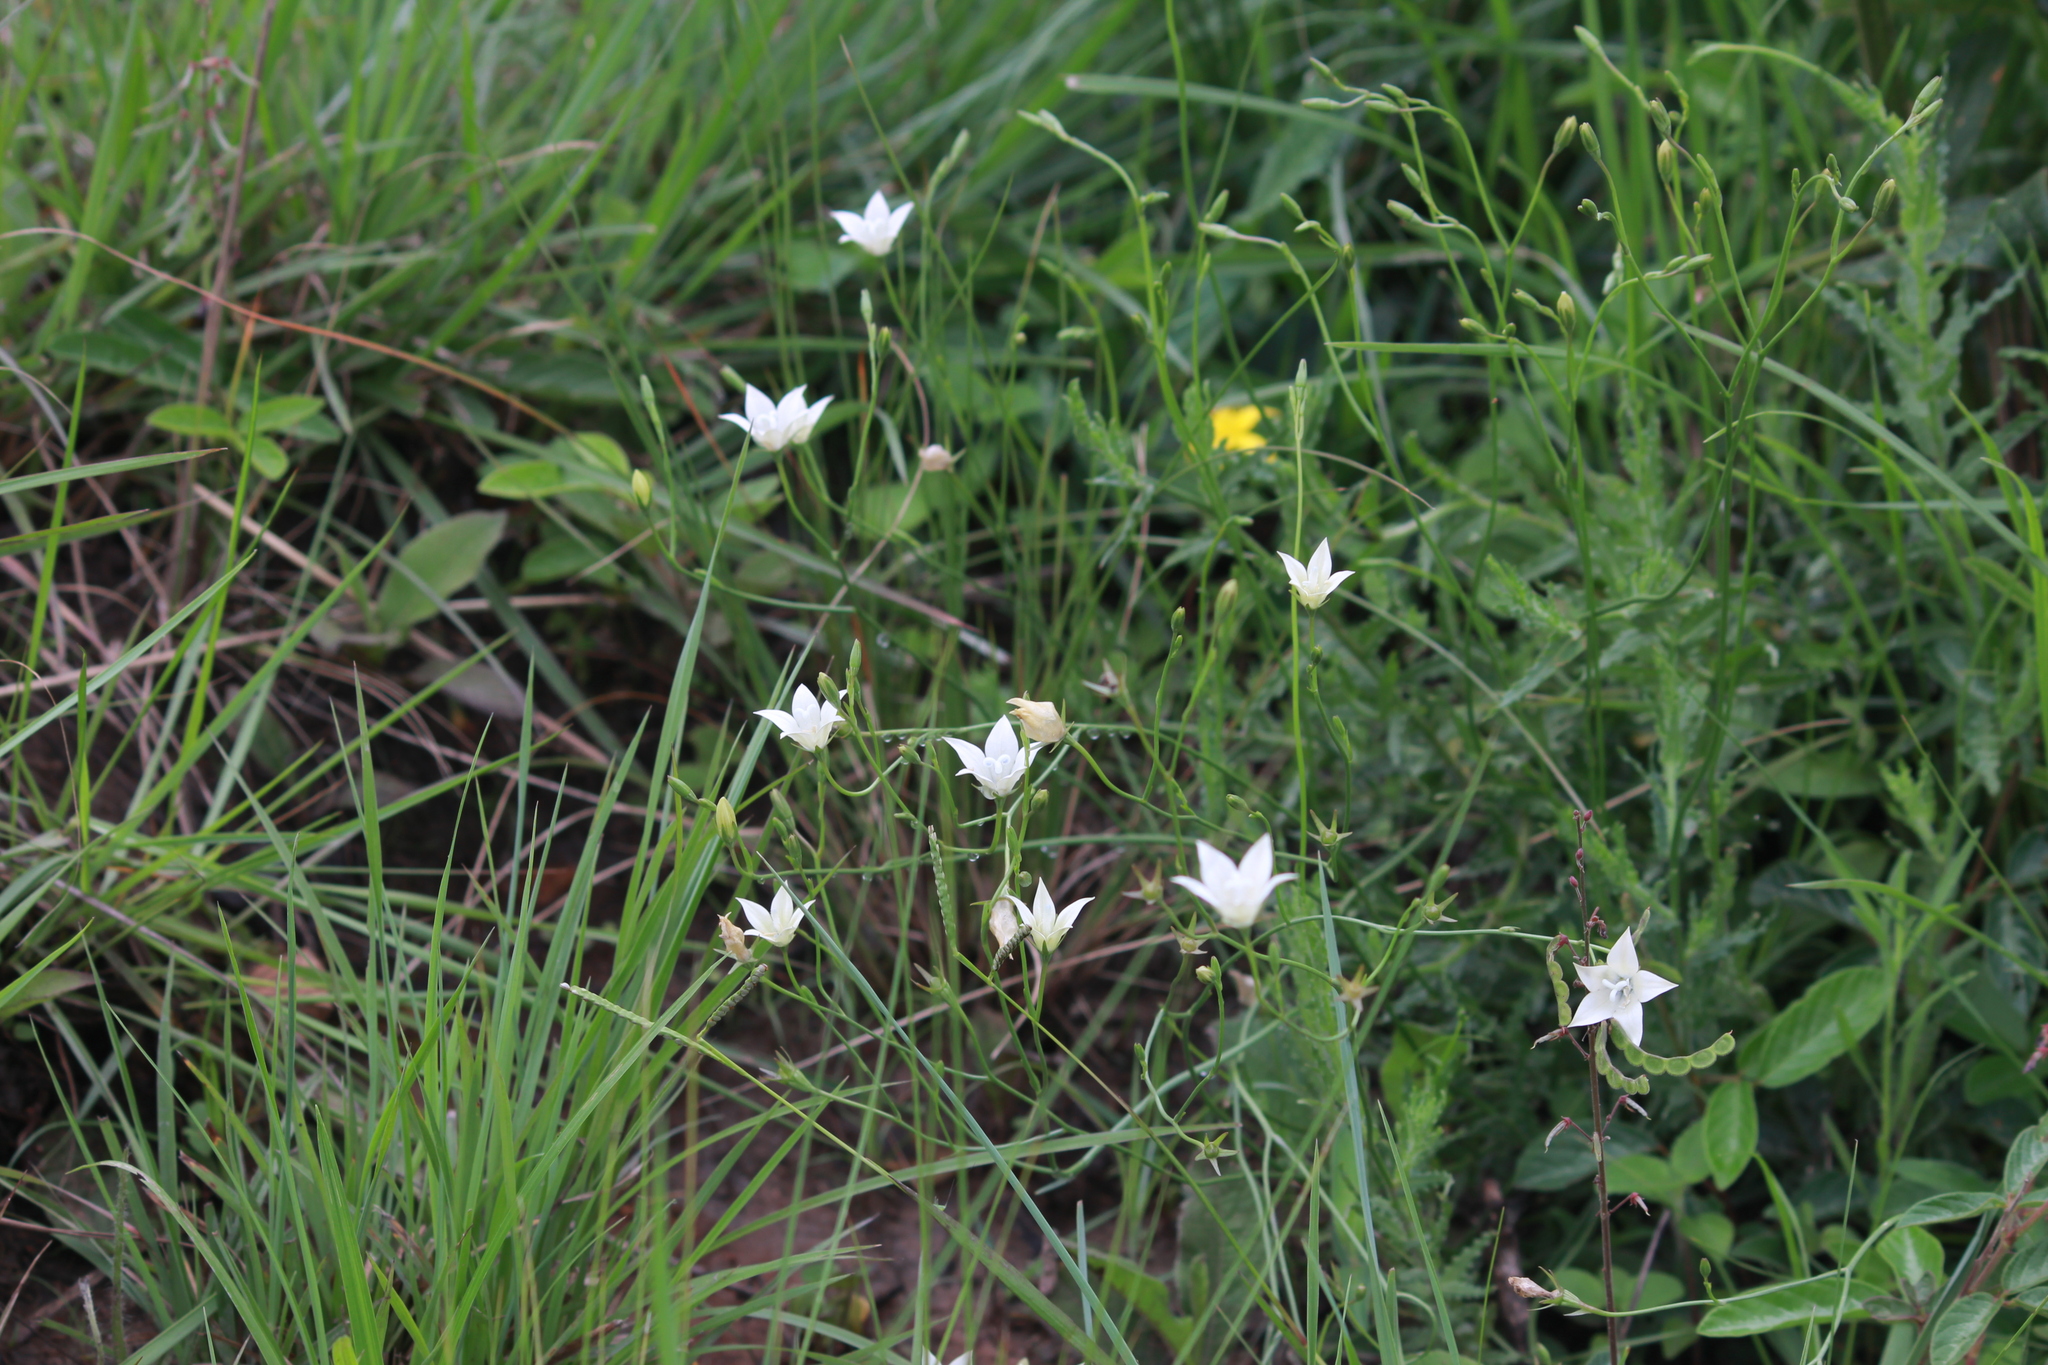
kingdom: Plantae
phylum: Tracheophyta
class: Magnoliopsida
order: Asterales
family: Campanulaceae
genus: Wahlenbergia
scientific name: Wahlenbergia grandiflora
